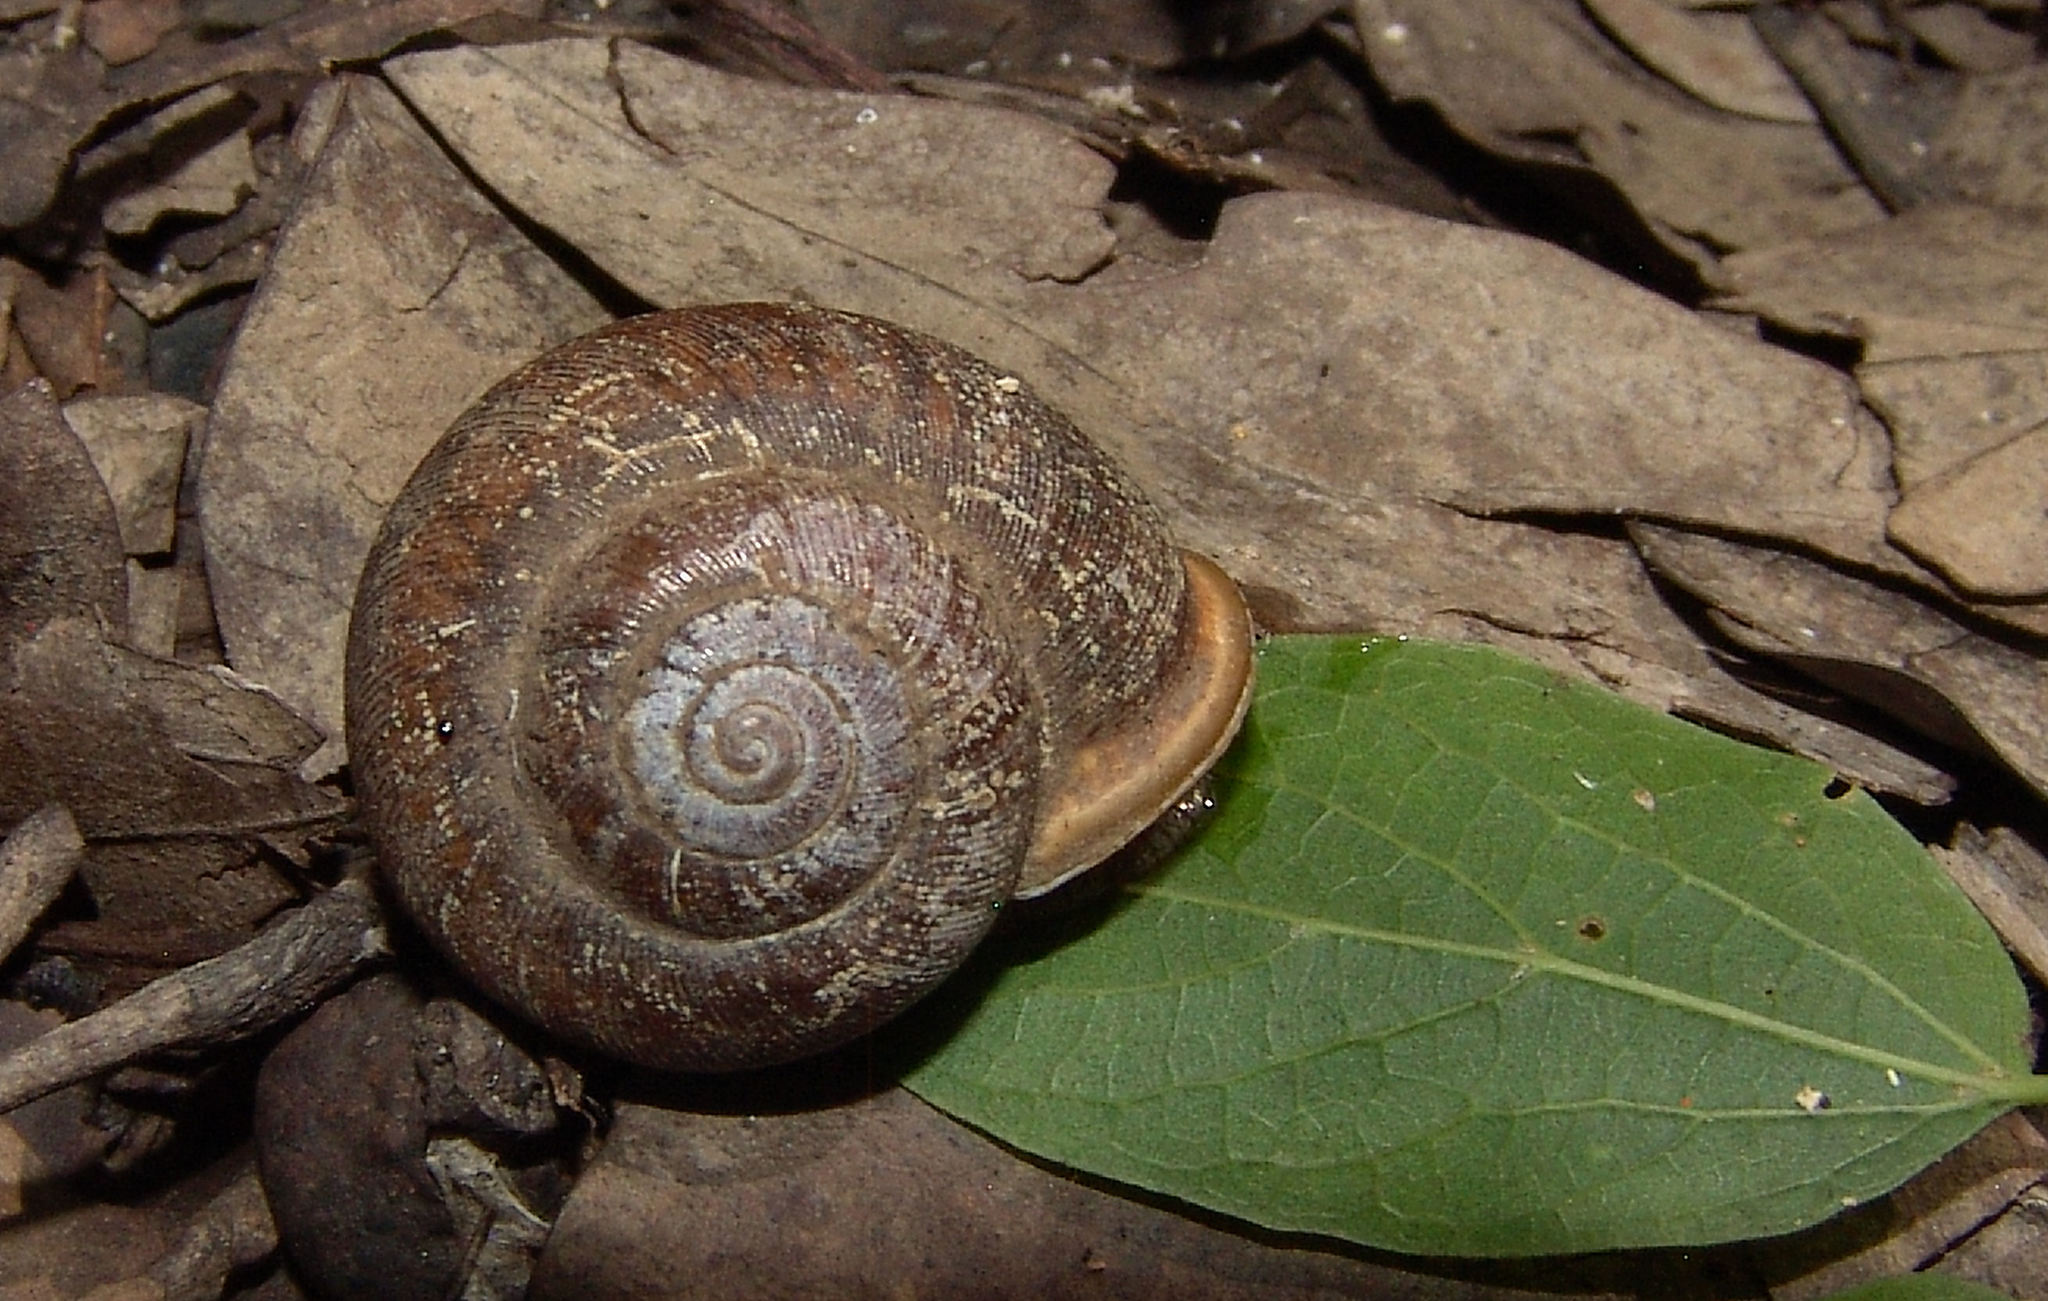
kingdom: Animalia
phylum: Mollusca
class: Gastropoda
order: Stylommatophora
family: Polygyridae
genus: Neohelix
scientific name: Neohelix albolabris
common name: Eastern whitelip
